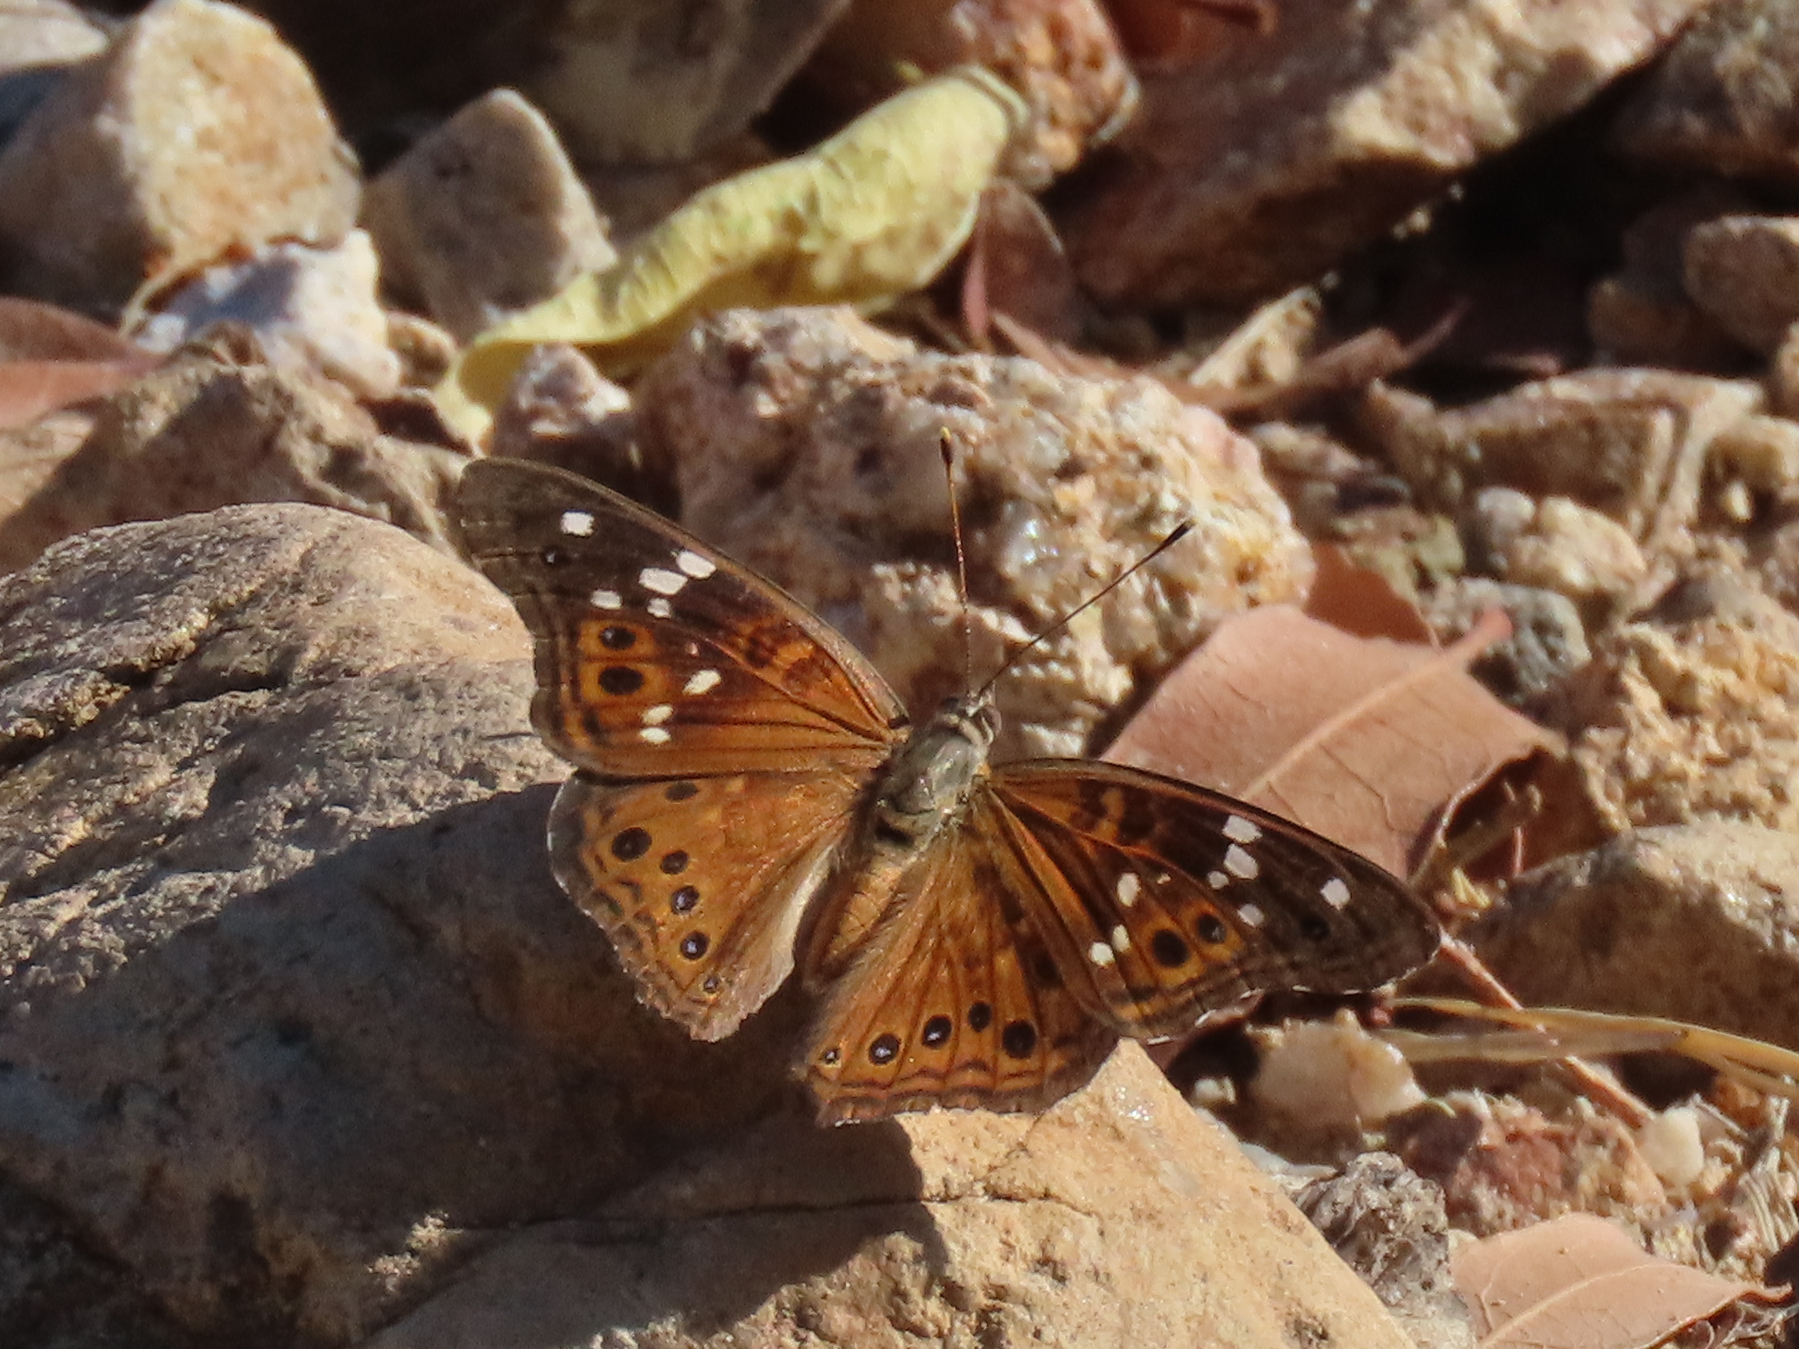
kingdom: Animalia
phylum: Arthropoda
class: Insecta
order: Lepidoptera
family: Nymphalidae
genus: Asterocampa
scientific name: Asterocampa leilia
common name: Empress leilia
